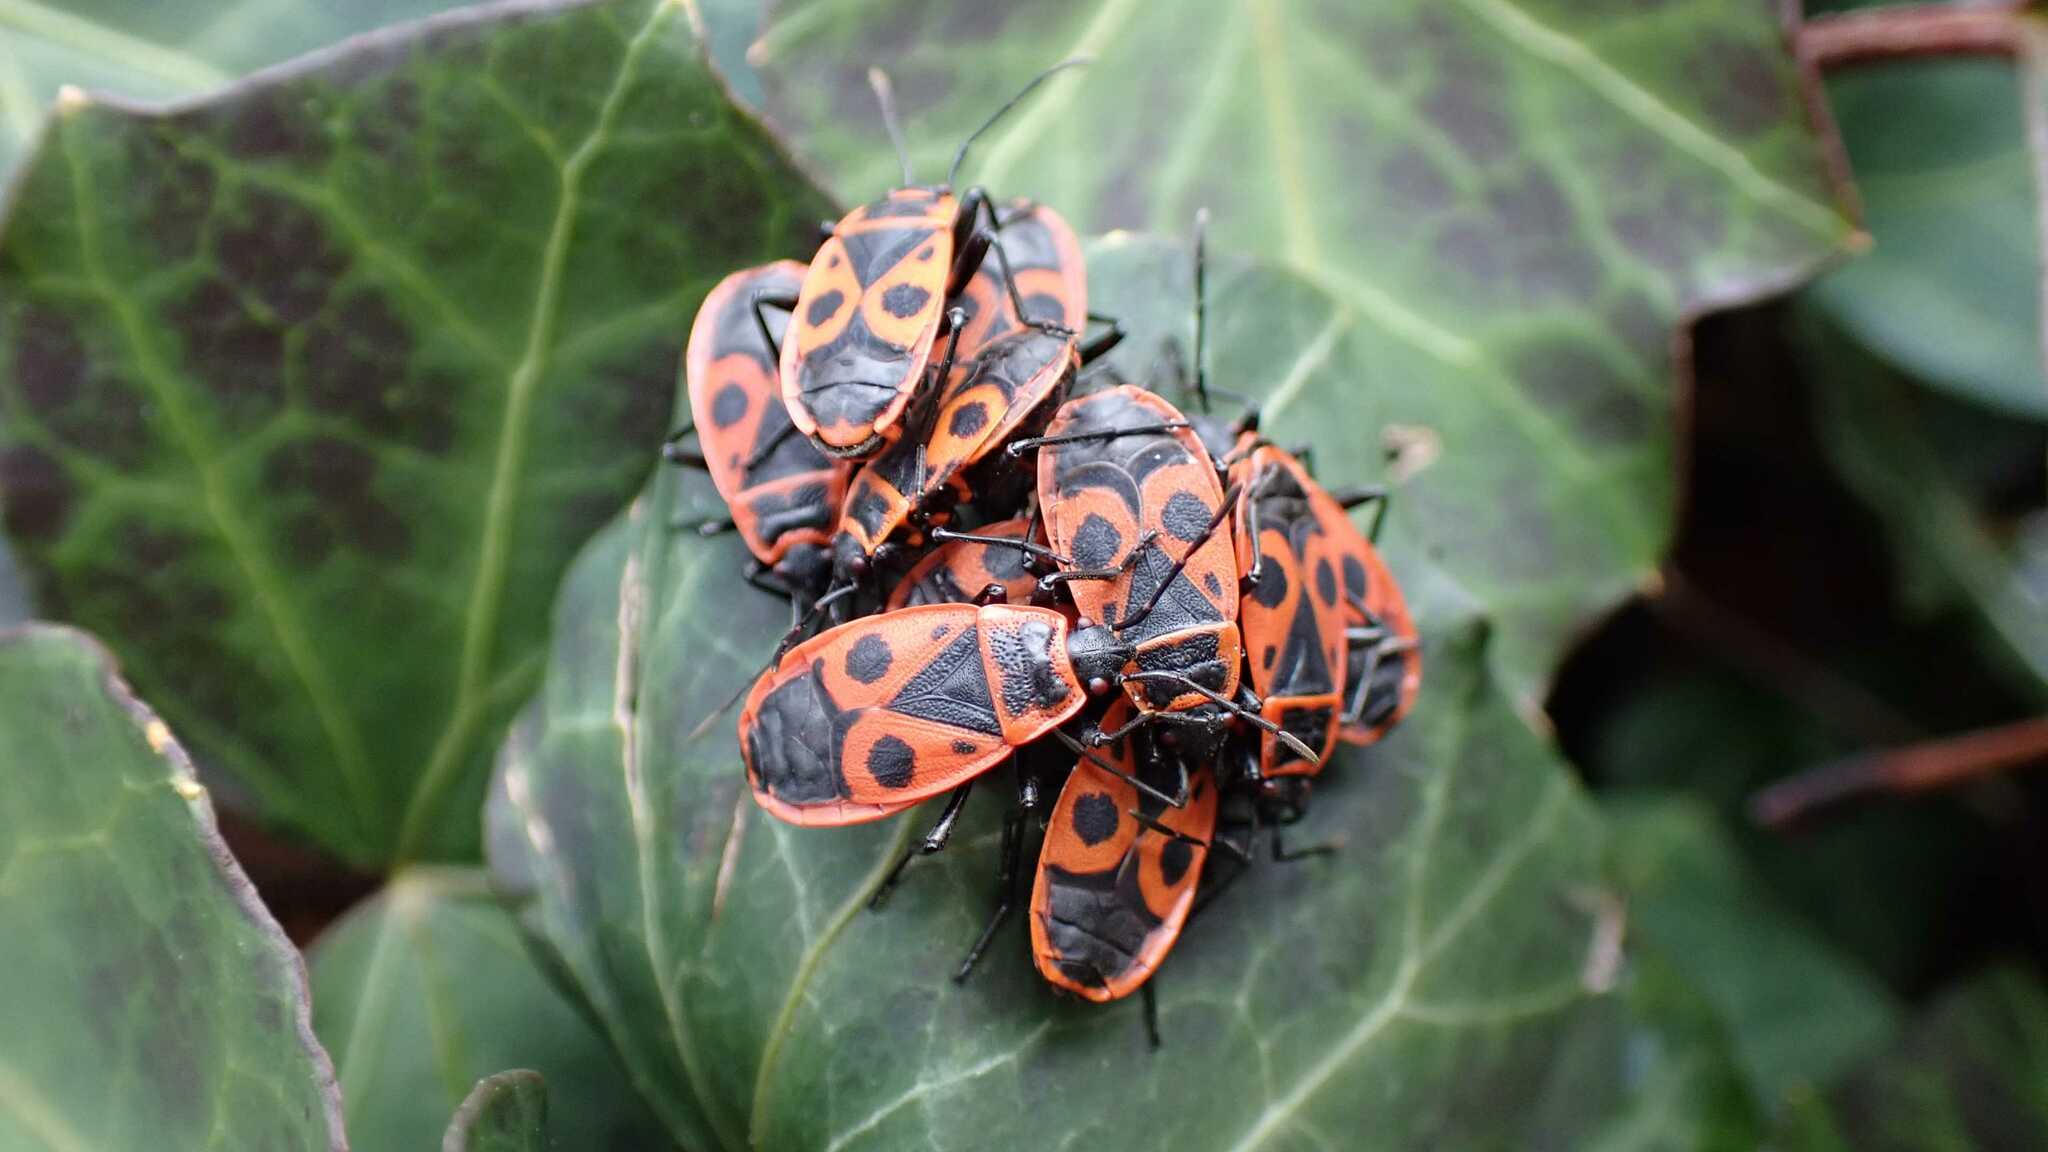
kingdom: Animalia
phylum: Arthropoda
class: Insecta
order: Hemiptera
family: Pyrrhocoridae
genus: Pyrrhocoris
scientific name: Pyrrhocoris apterus
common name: Firebug
